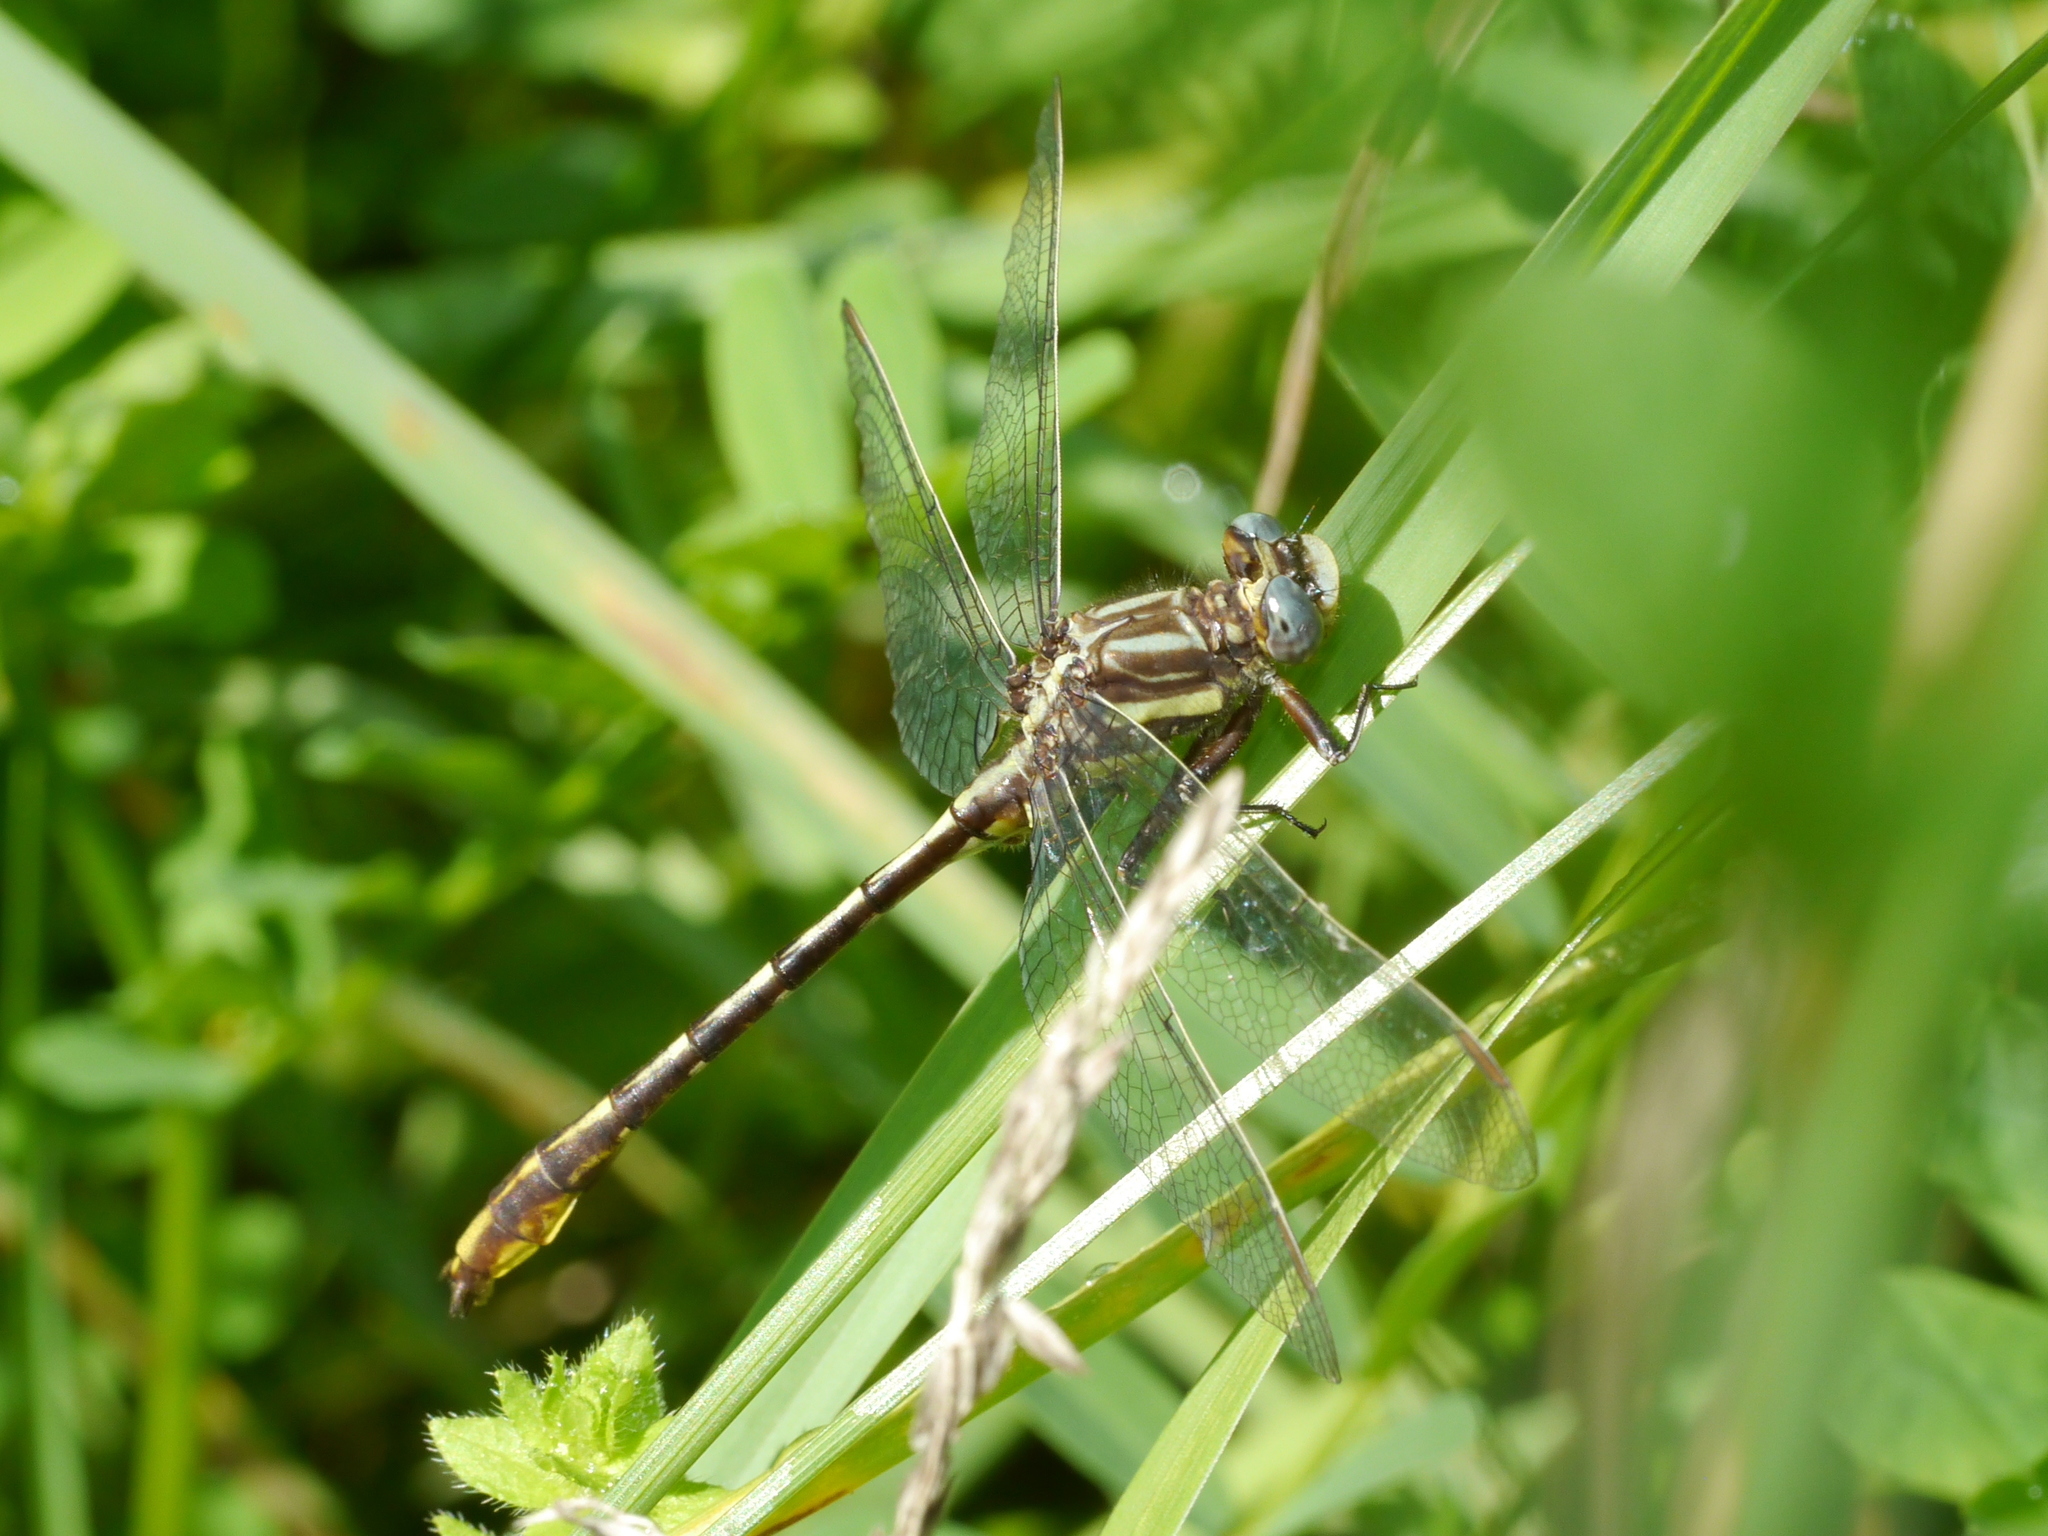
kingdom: Animalia
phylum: Arthropoda
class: Insecta
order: Odonata
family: Gomphidae
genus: Phanogomphus
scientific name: Phanogomphus exilis
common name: Lancet clubtail
